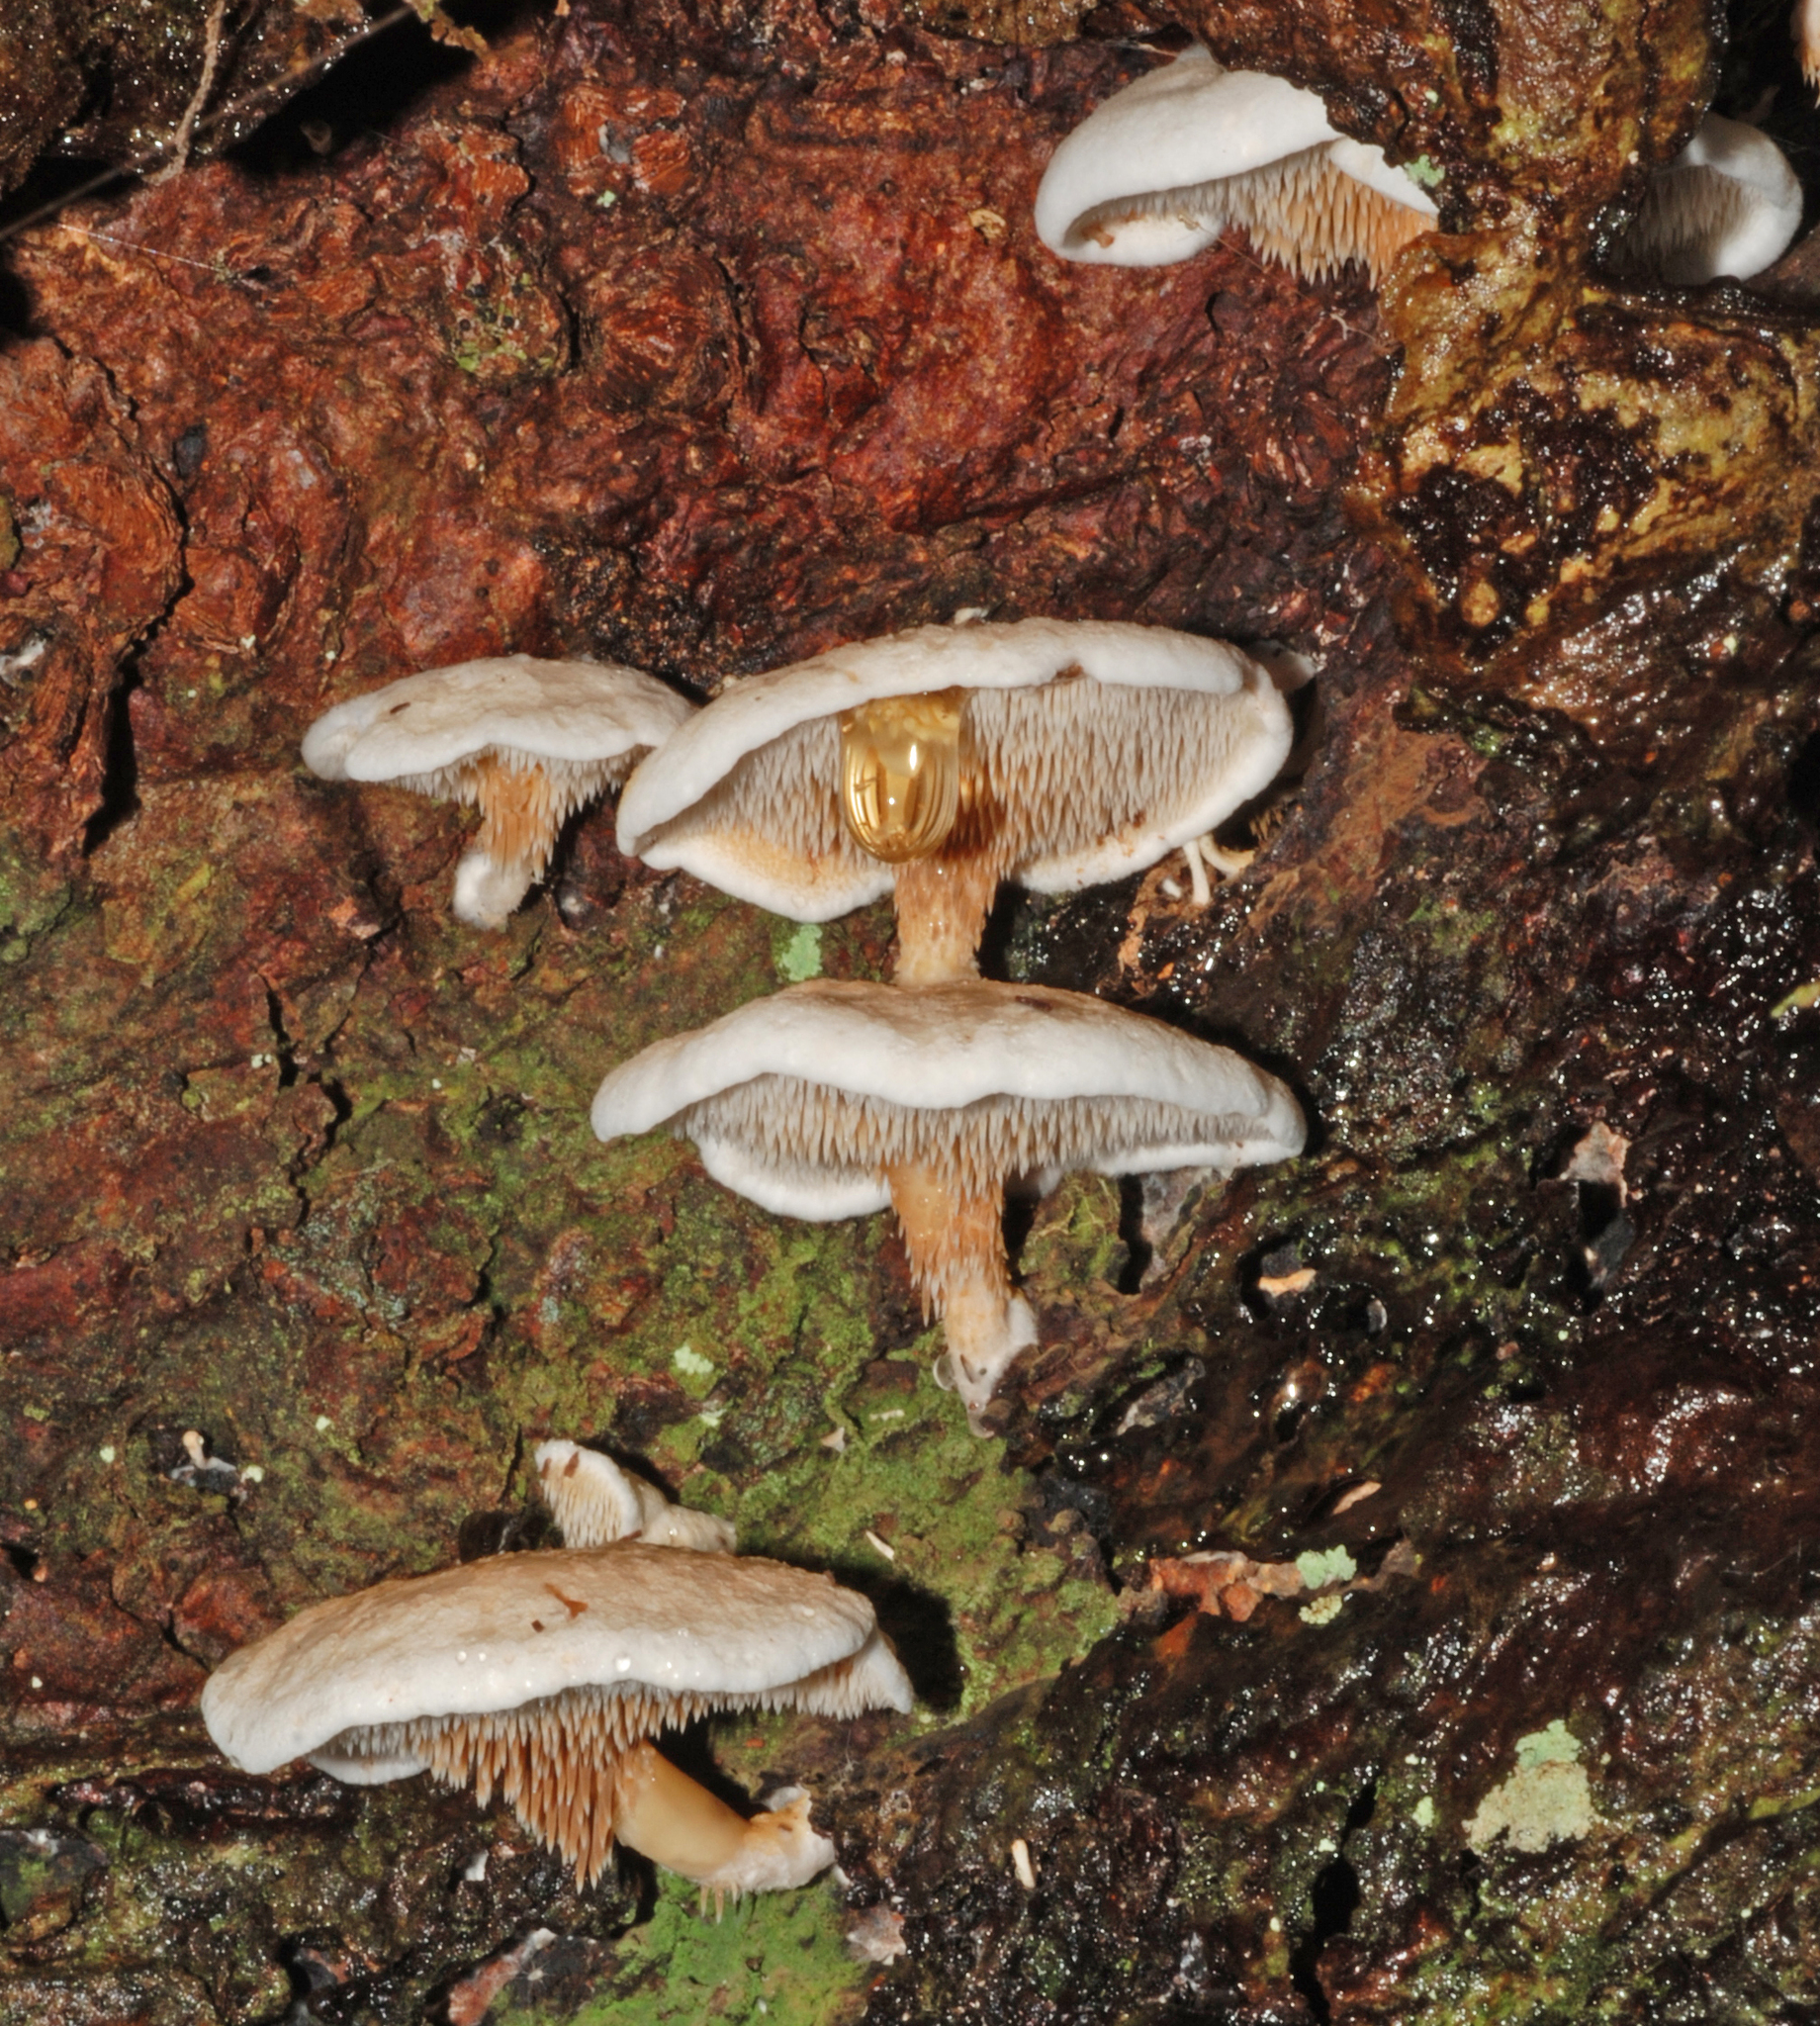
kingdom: Fungi
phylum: Basidiomycota
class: Agaricomycetes
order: Gomphales
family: Clavariadelphaceae
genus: Beenakia
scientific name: Beenakia dacostae
